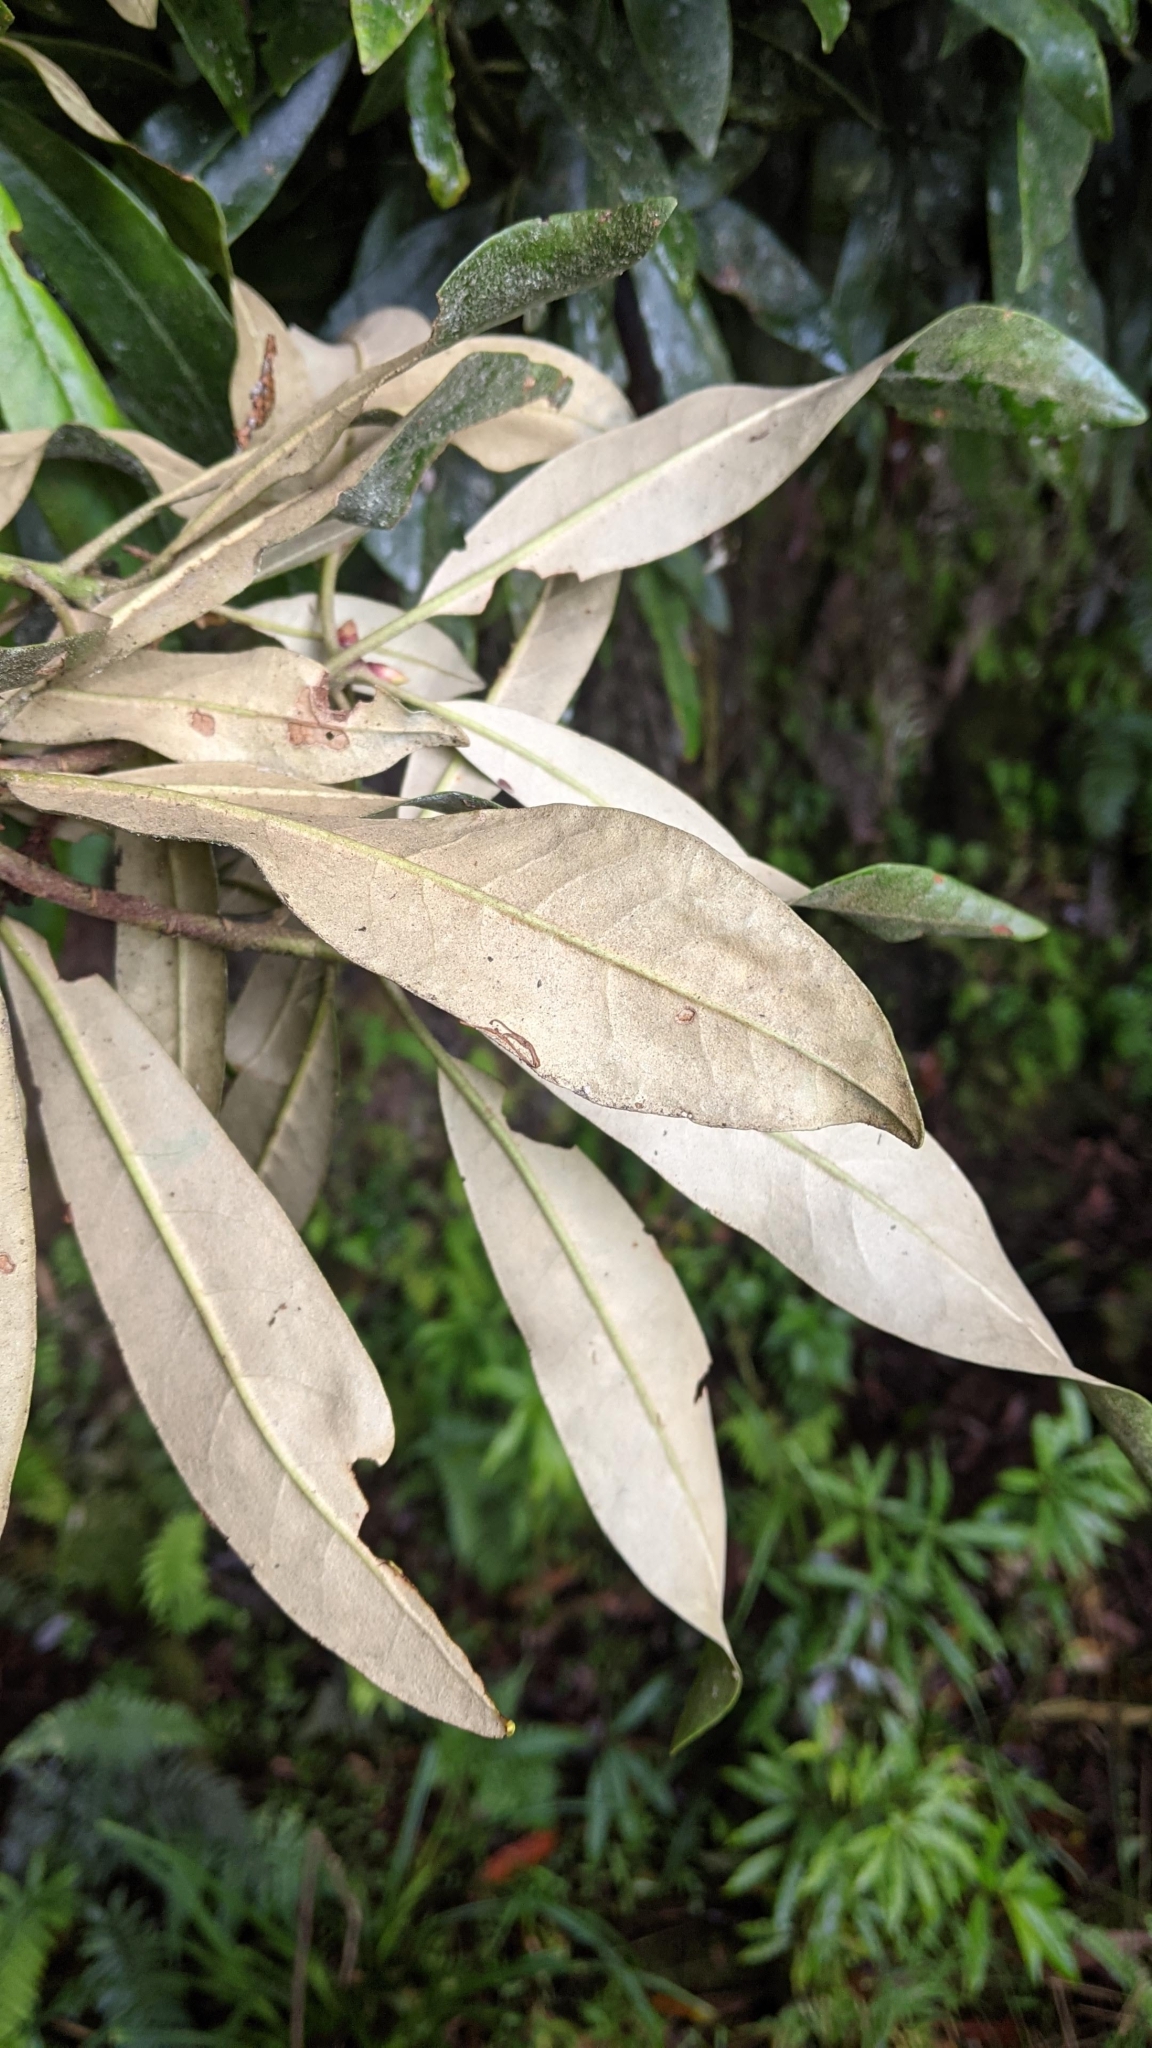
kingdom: Plantae
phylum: Tracheophyta
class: Magnoliopsida
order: Ericales
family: Ericaceae
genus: Rhododendron
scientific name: Rhododendron formosanum
